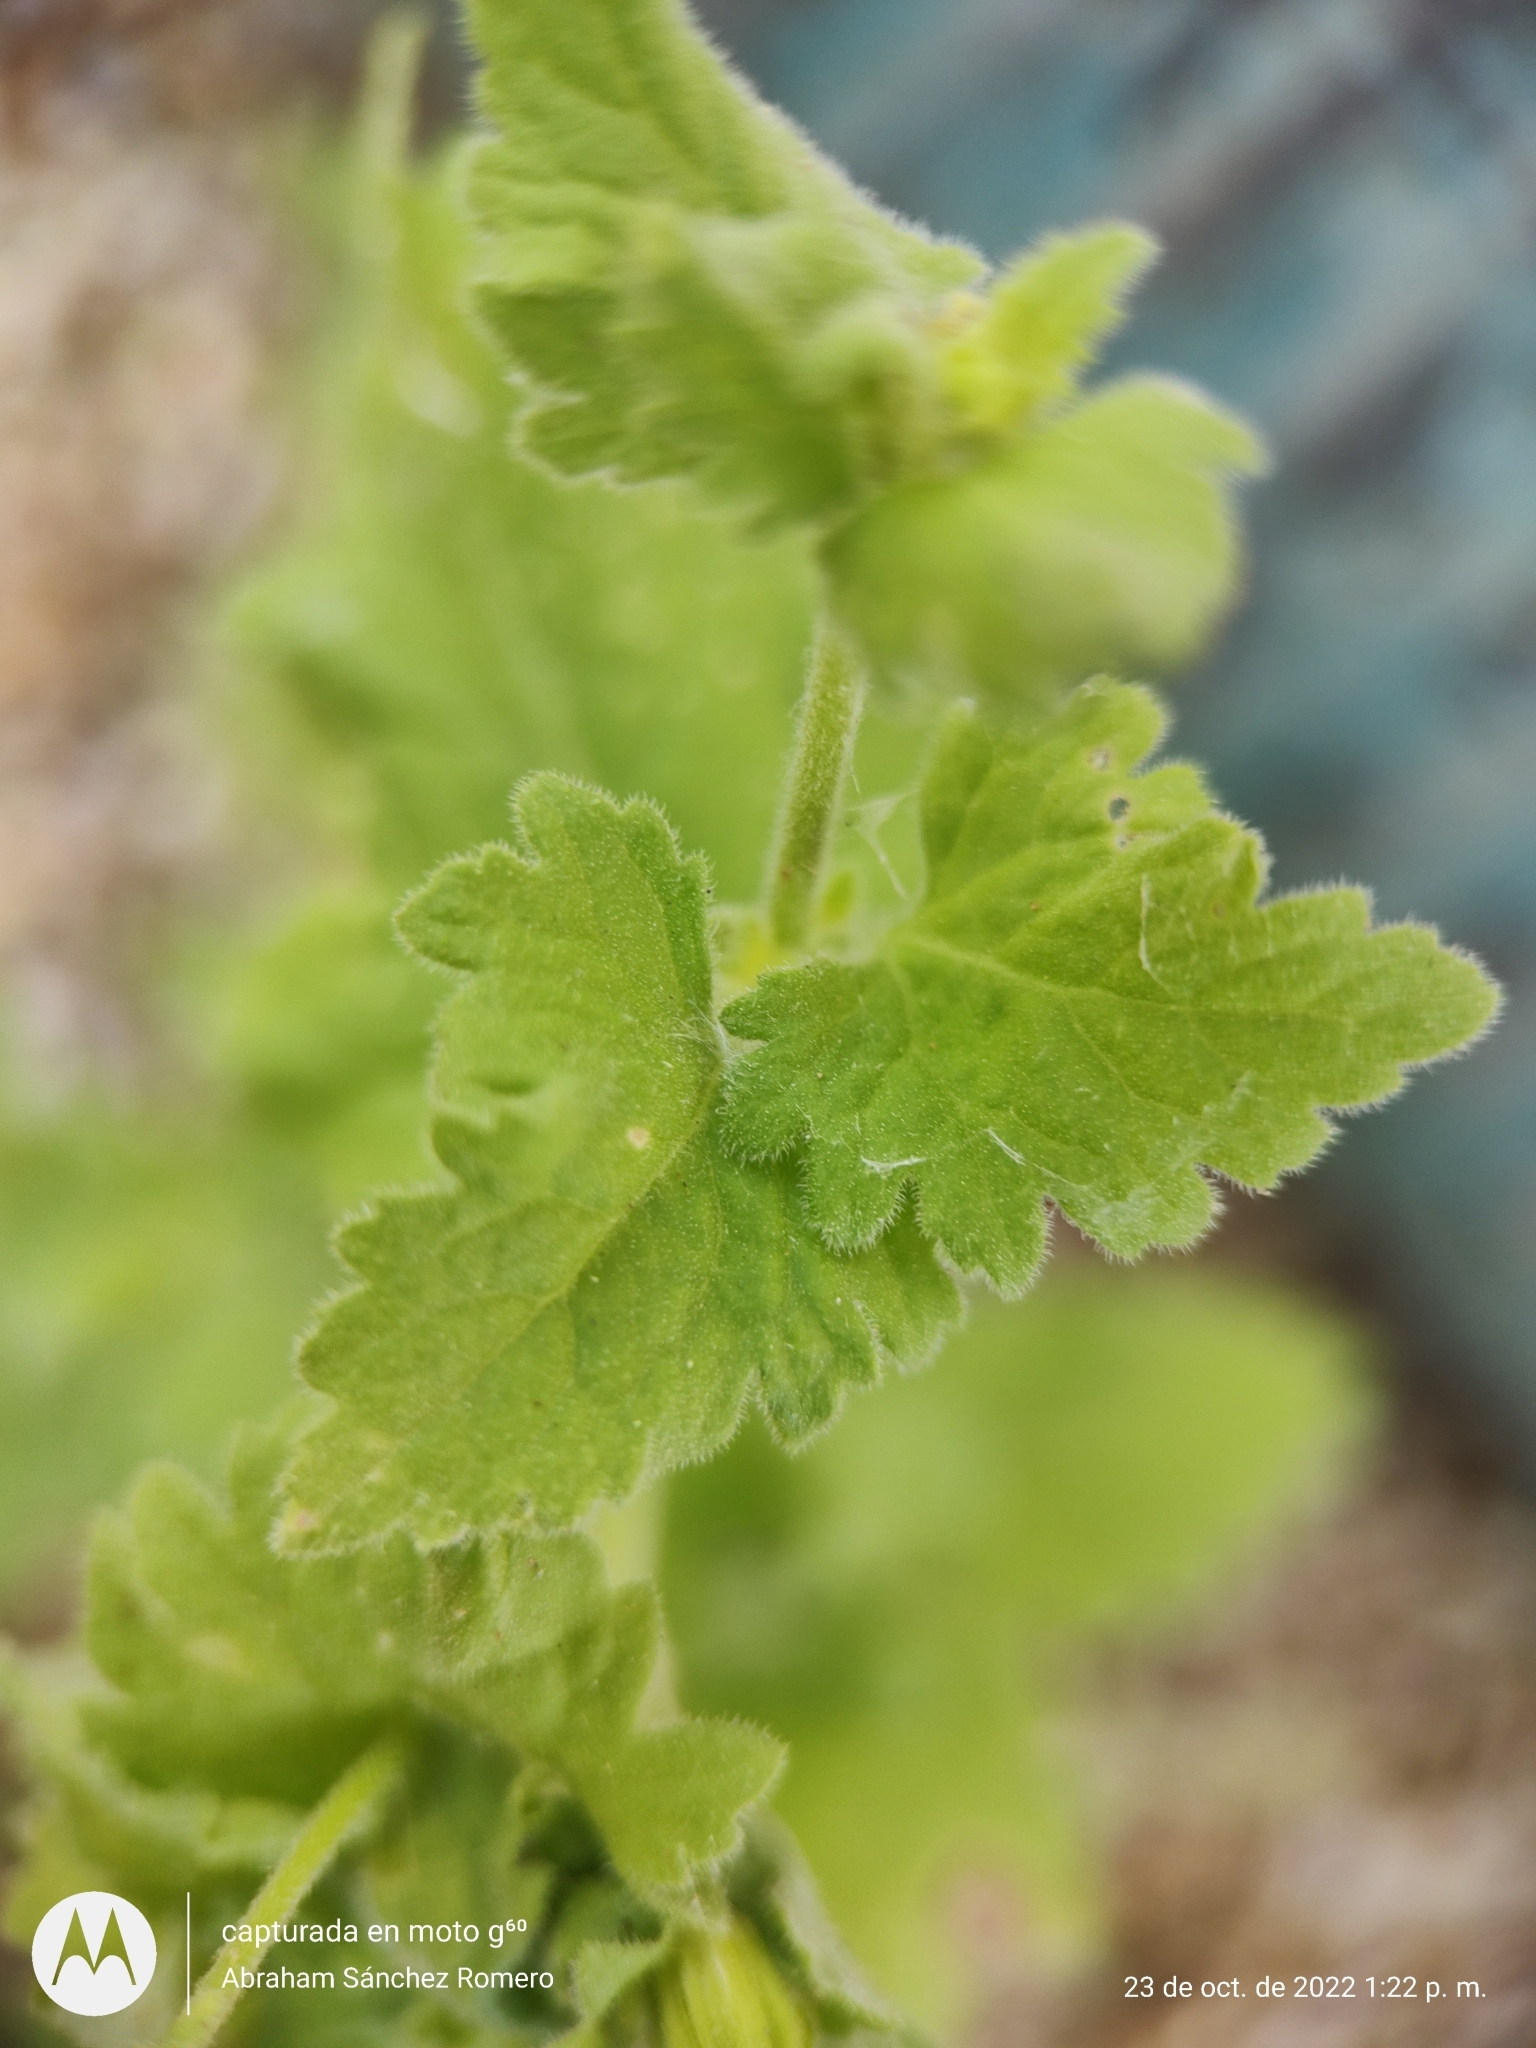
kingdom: Plantae
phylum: Tracheophyta
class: Magnoliopsida
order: Asterales
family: Asteraceae
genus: Perityle
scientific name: Perityle cuneata
